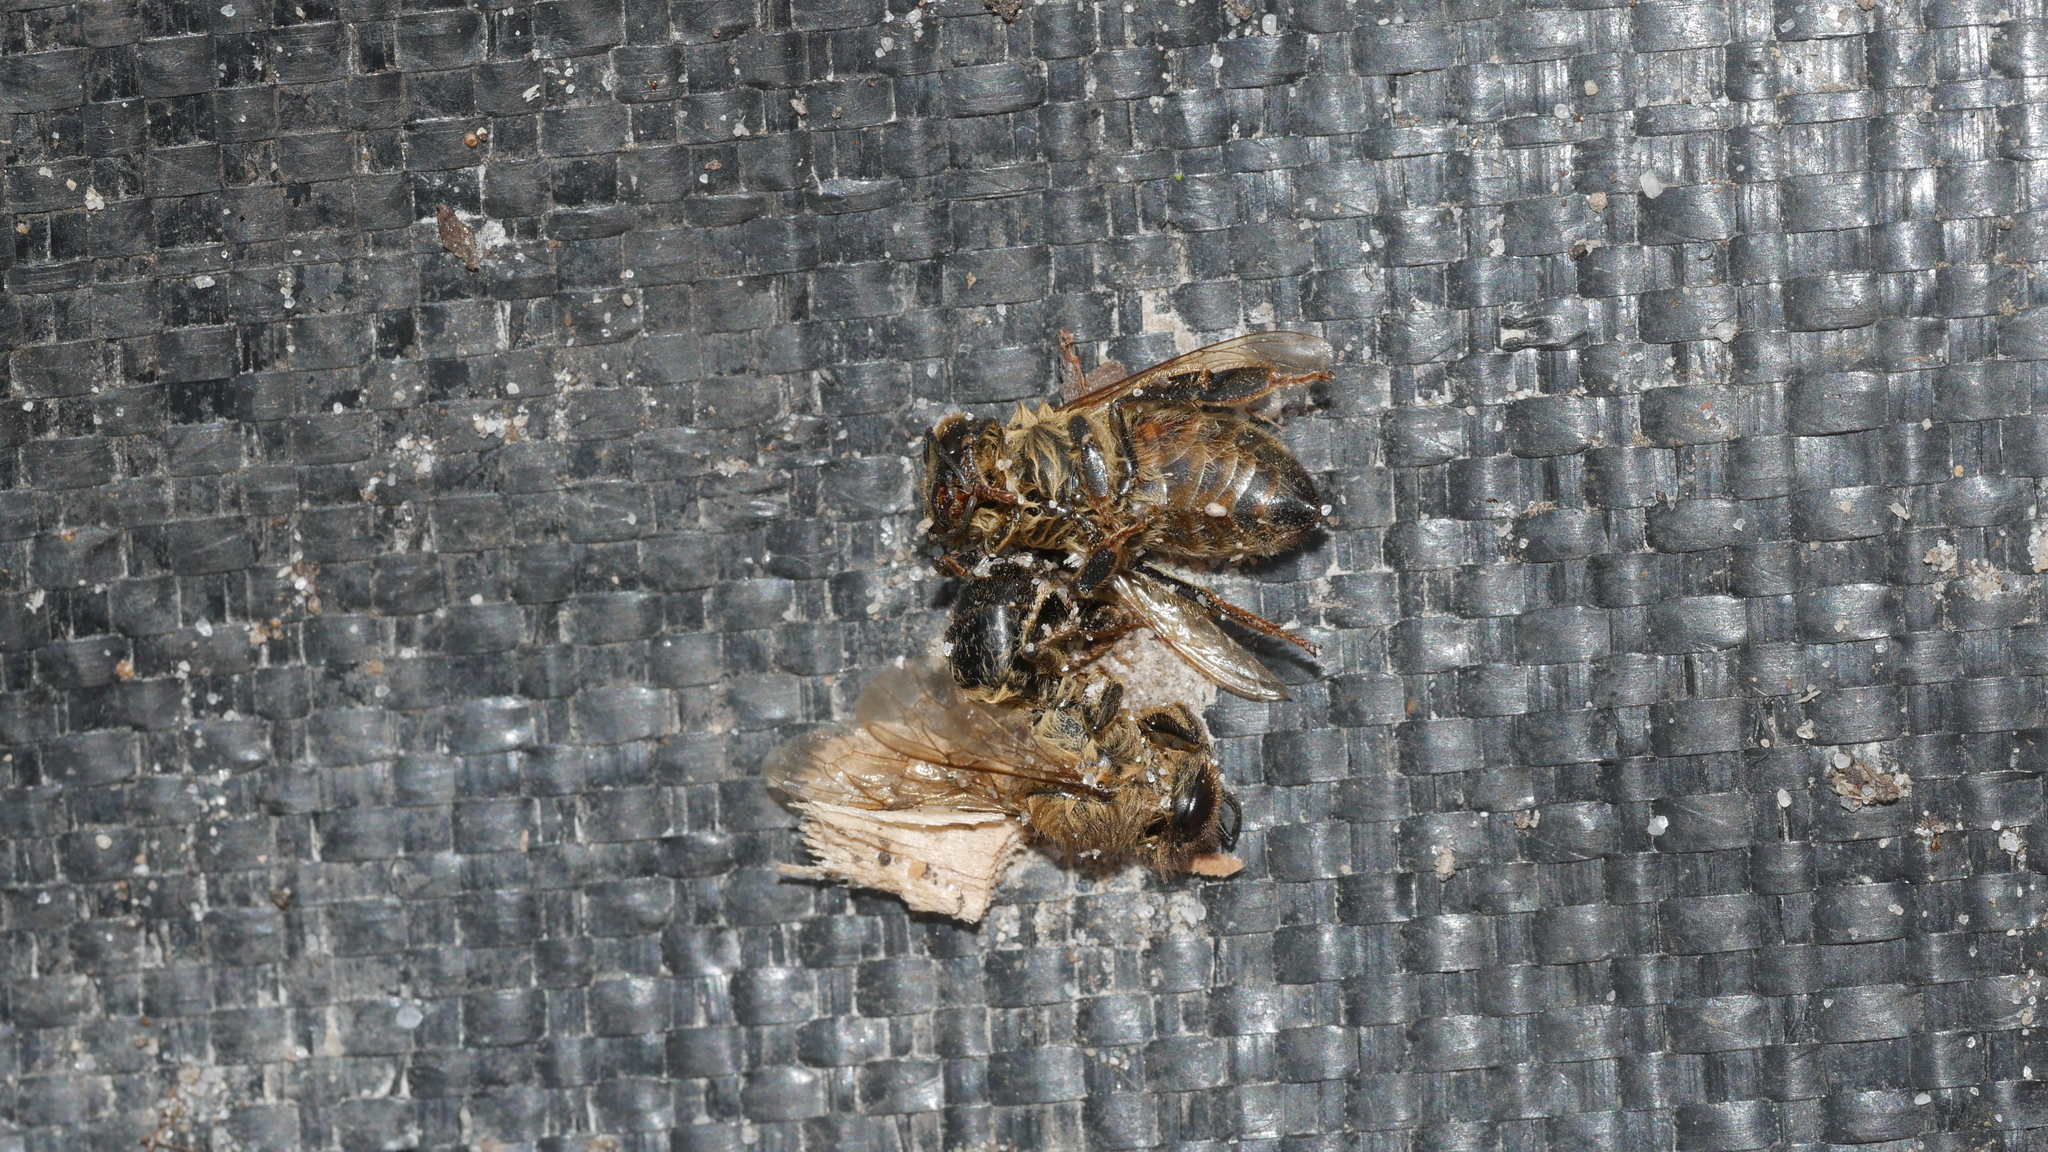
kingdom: Animalia
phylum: Arthropoda
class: Insecta
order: Hymenoptera
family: Apidae
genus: Apis
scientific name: Apis mellifera
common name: Honey bee
